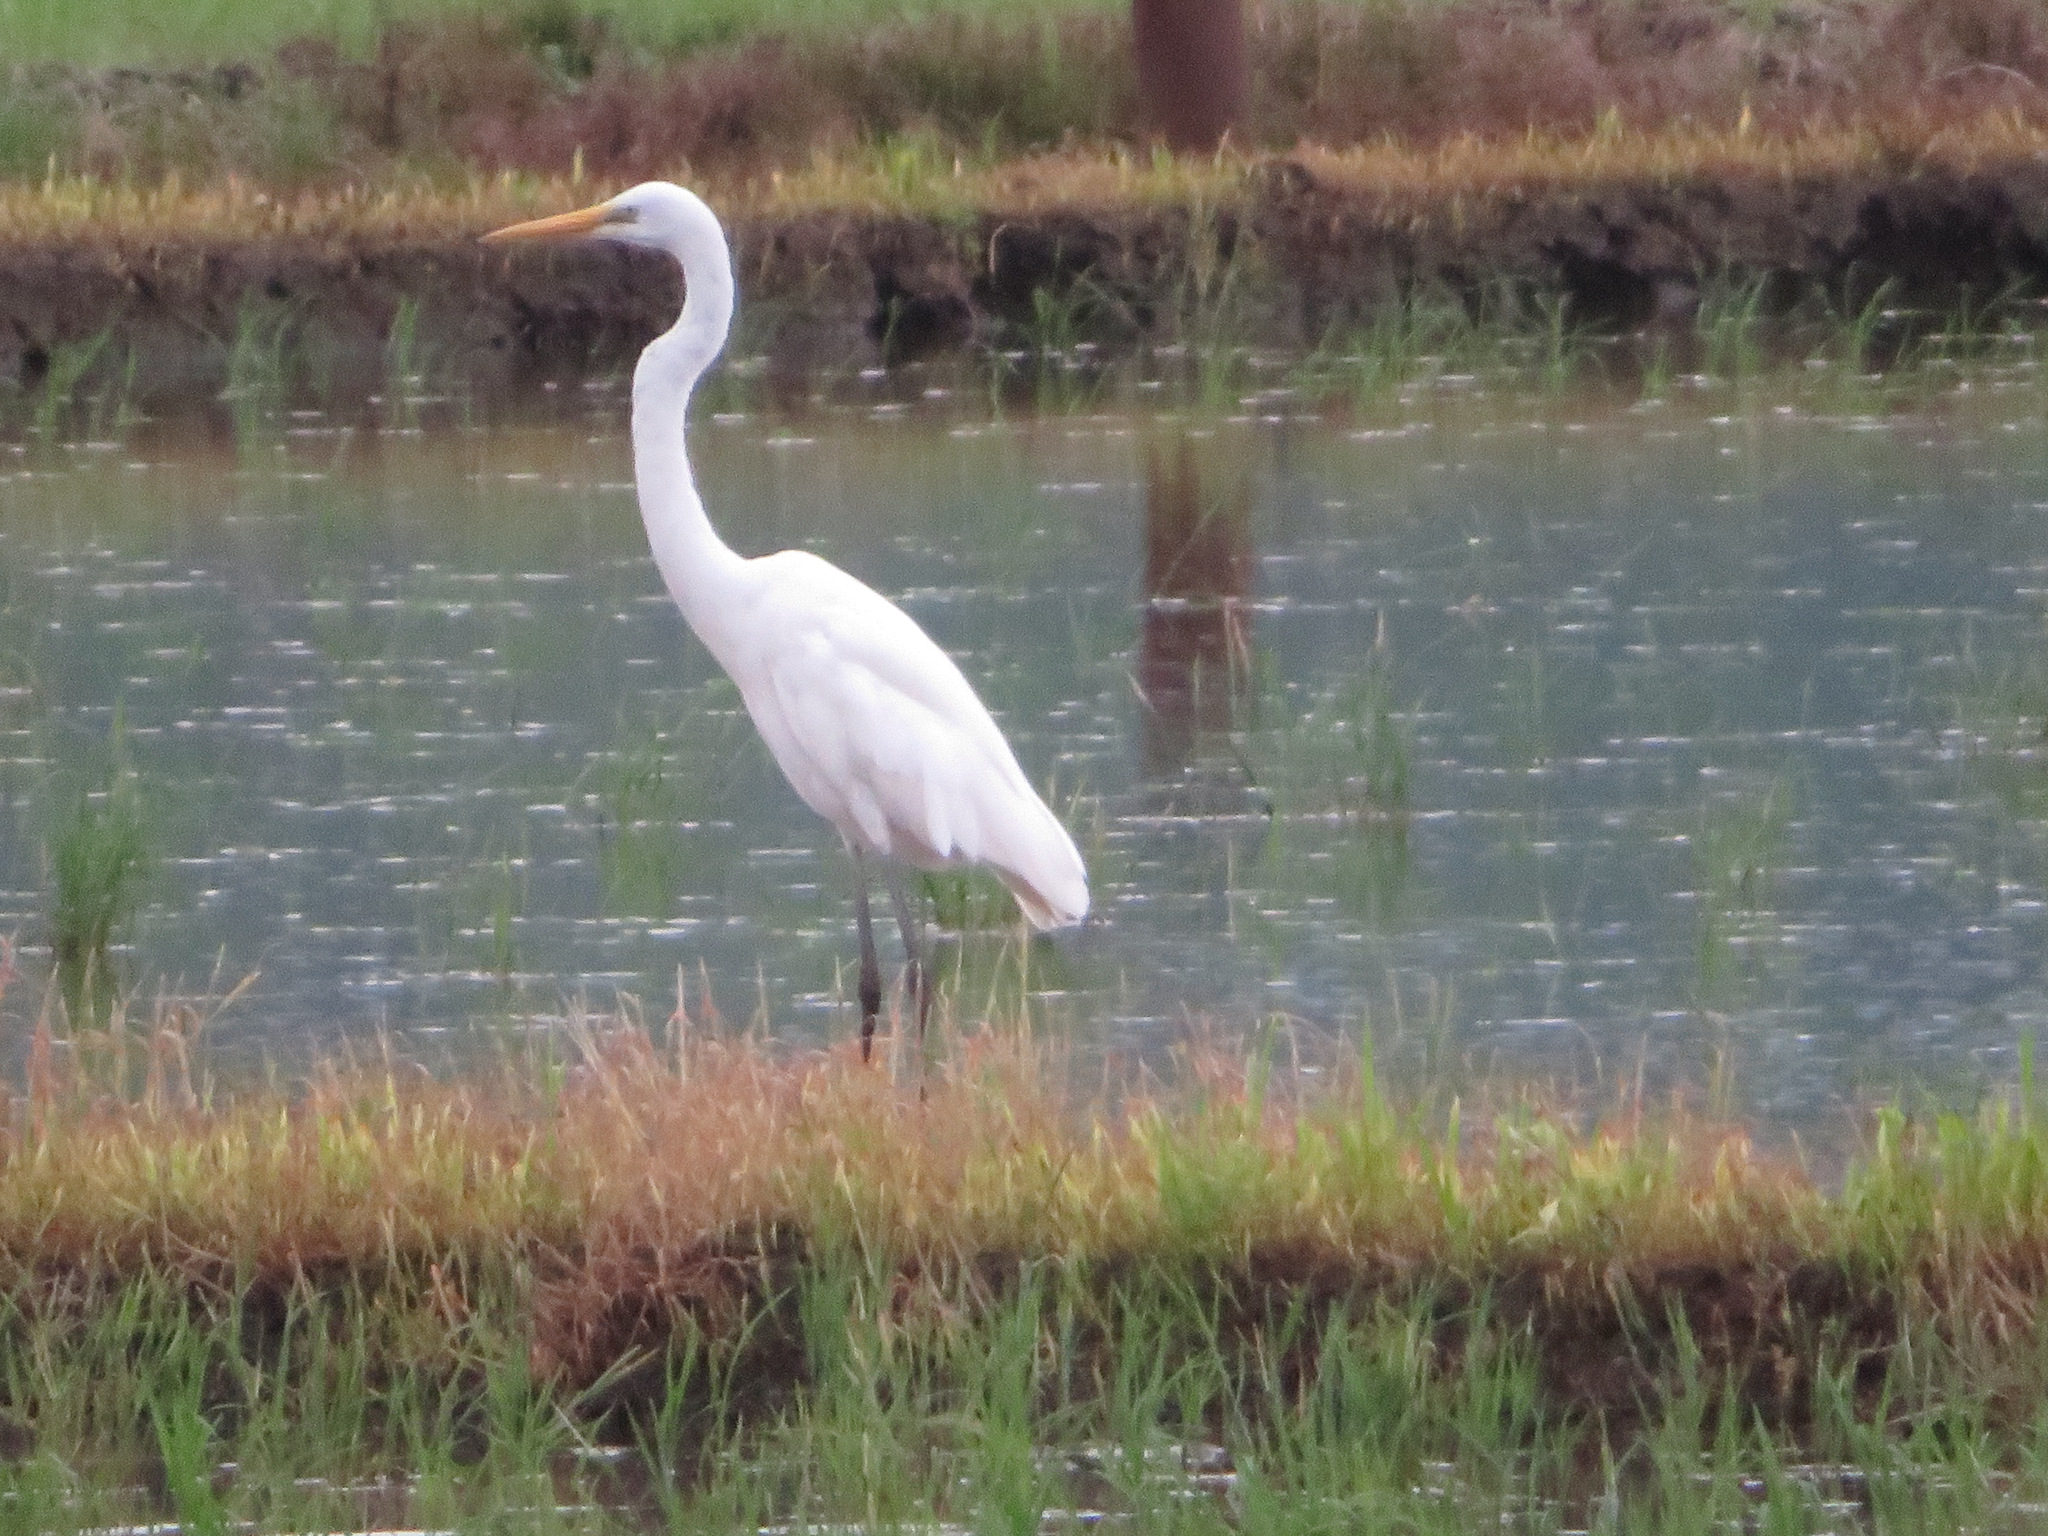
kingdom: Animalia
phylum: Chordata
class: Aves
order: Pelecaniformes
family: Ardeidae
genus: Ardea
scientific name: Ardea alba
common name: Great egret
